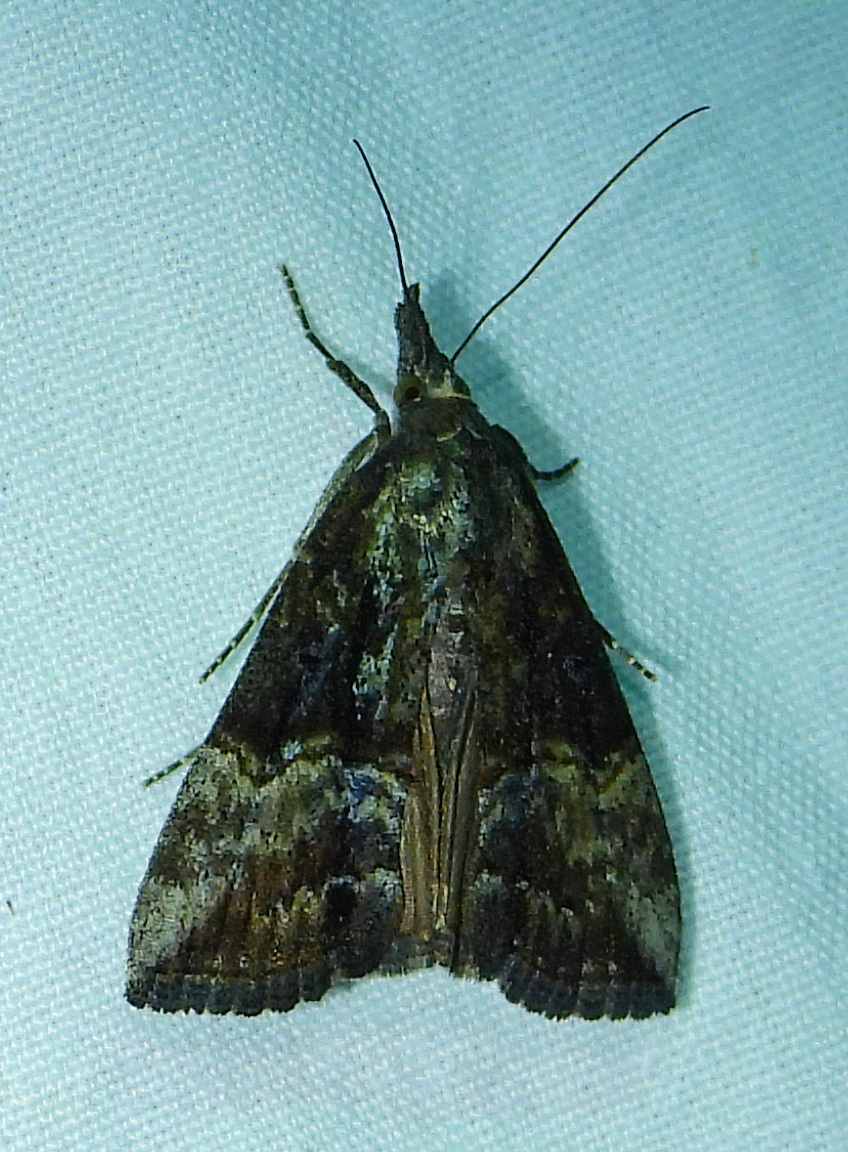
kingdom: Animalia
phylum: Arthropoda
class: Insecta
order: Lepidoptera
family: Erebidae
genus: Hypena
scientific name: Hypena scabra
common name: Green cloverworm
